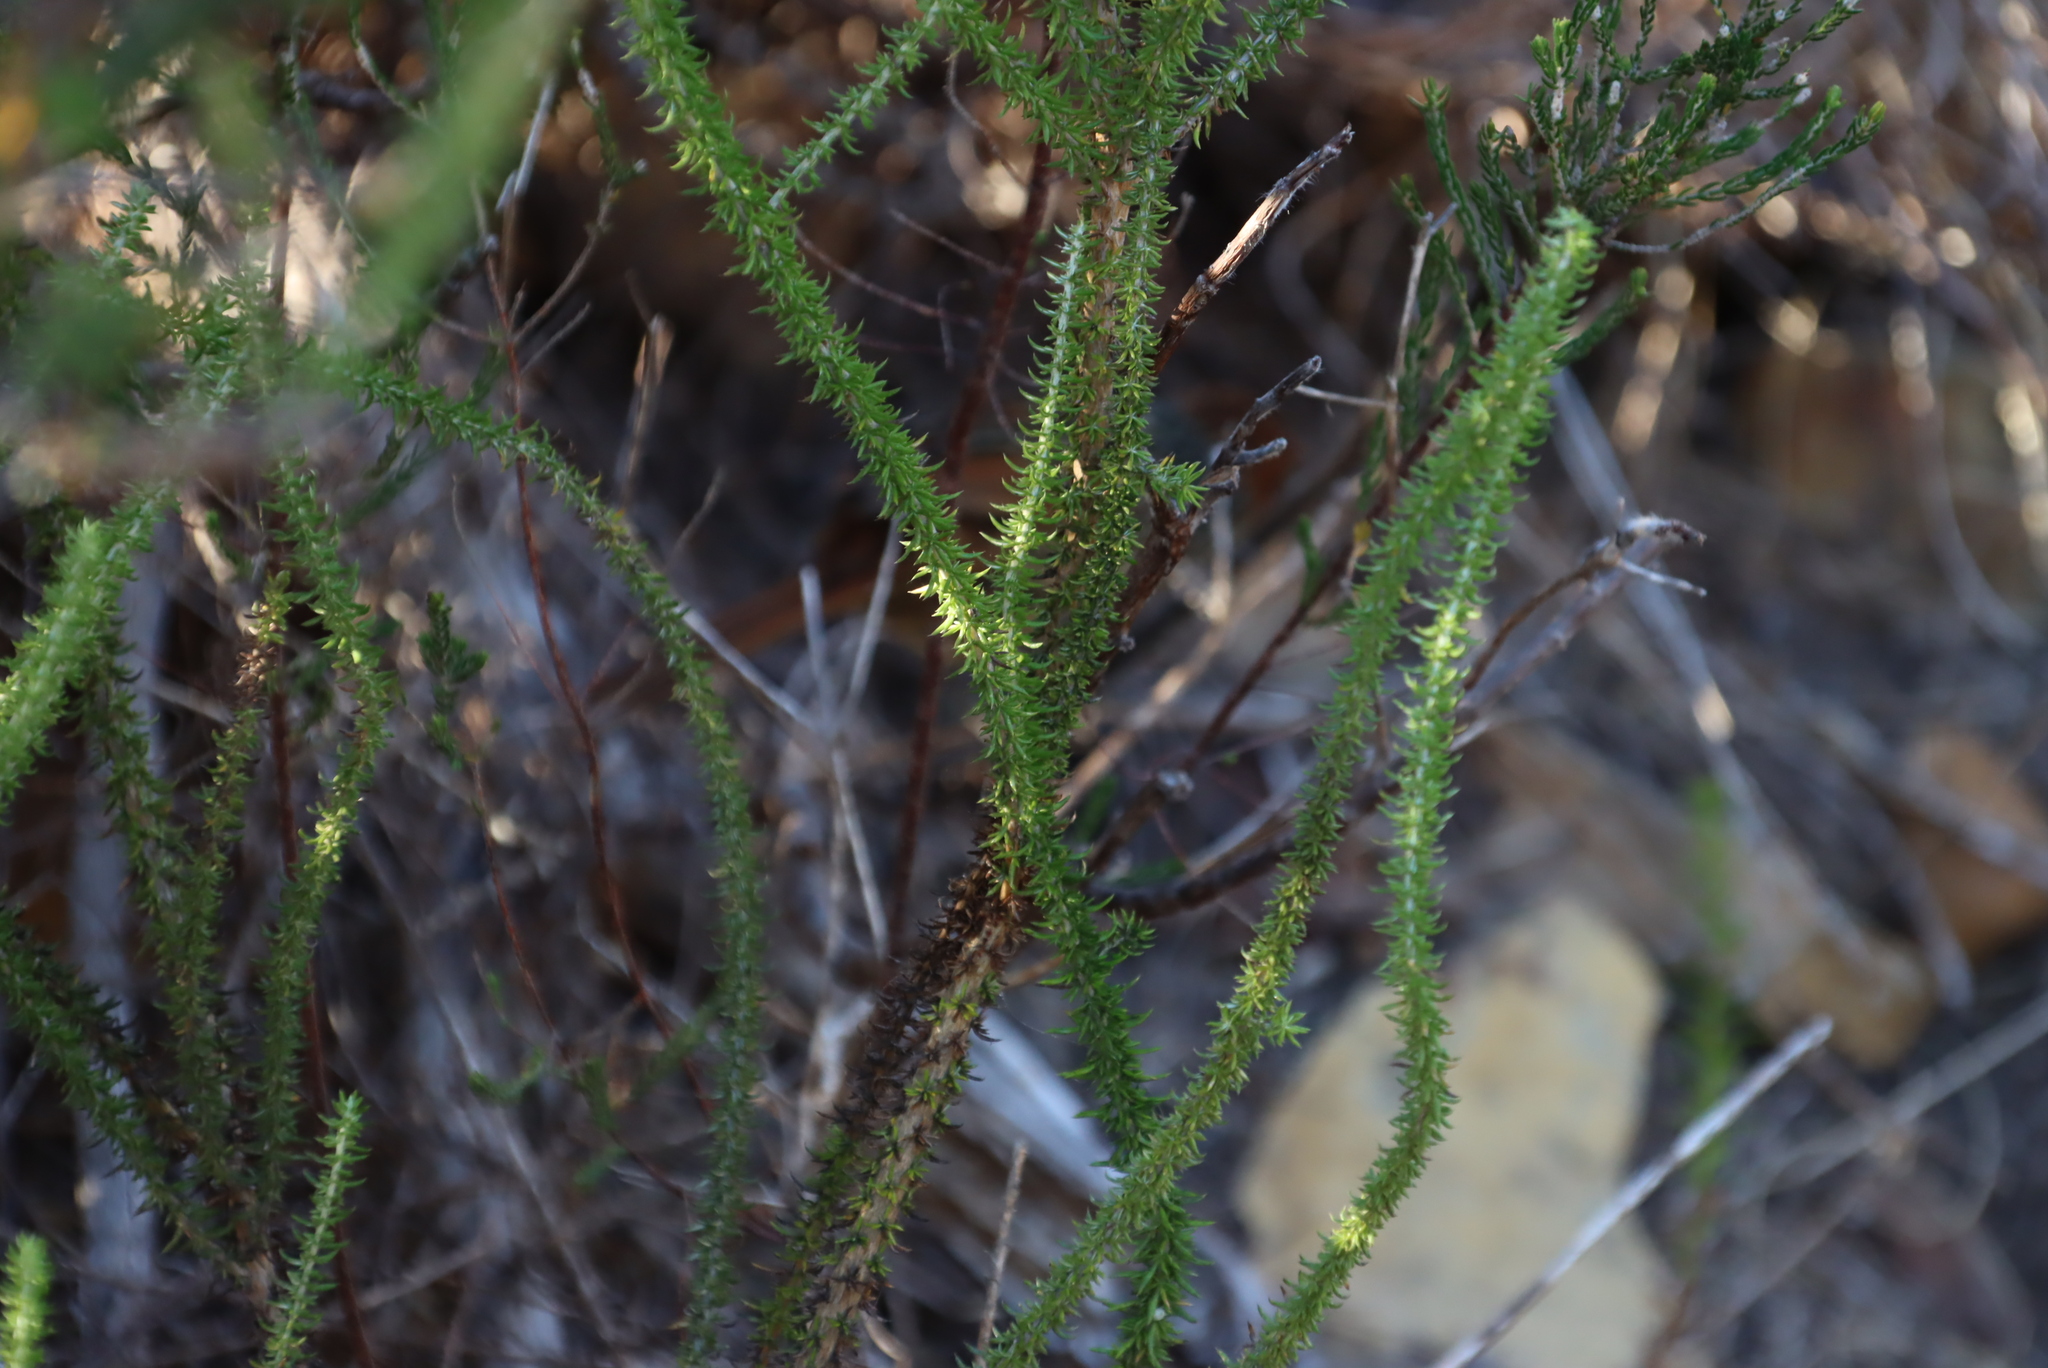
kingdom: Animalia
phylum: Chordata
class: Aves
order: Passeriformes
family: Macrosphenidae
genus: Sphenoeacus
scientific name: Sphenoeacus afer
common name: Cape grassbird
